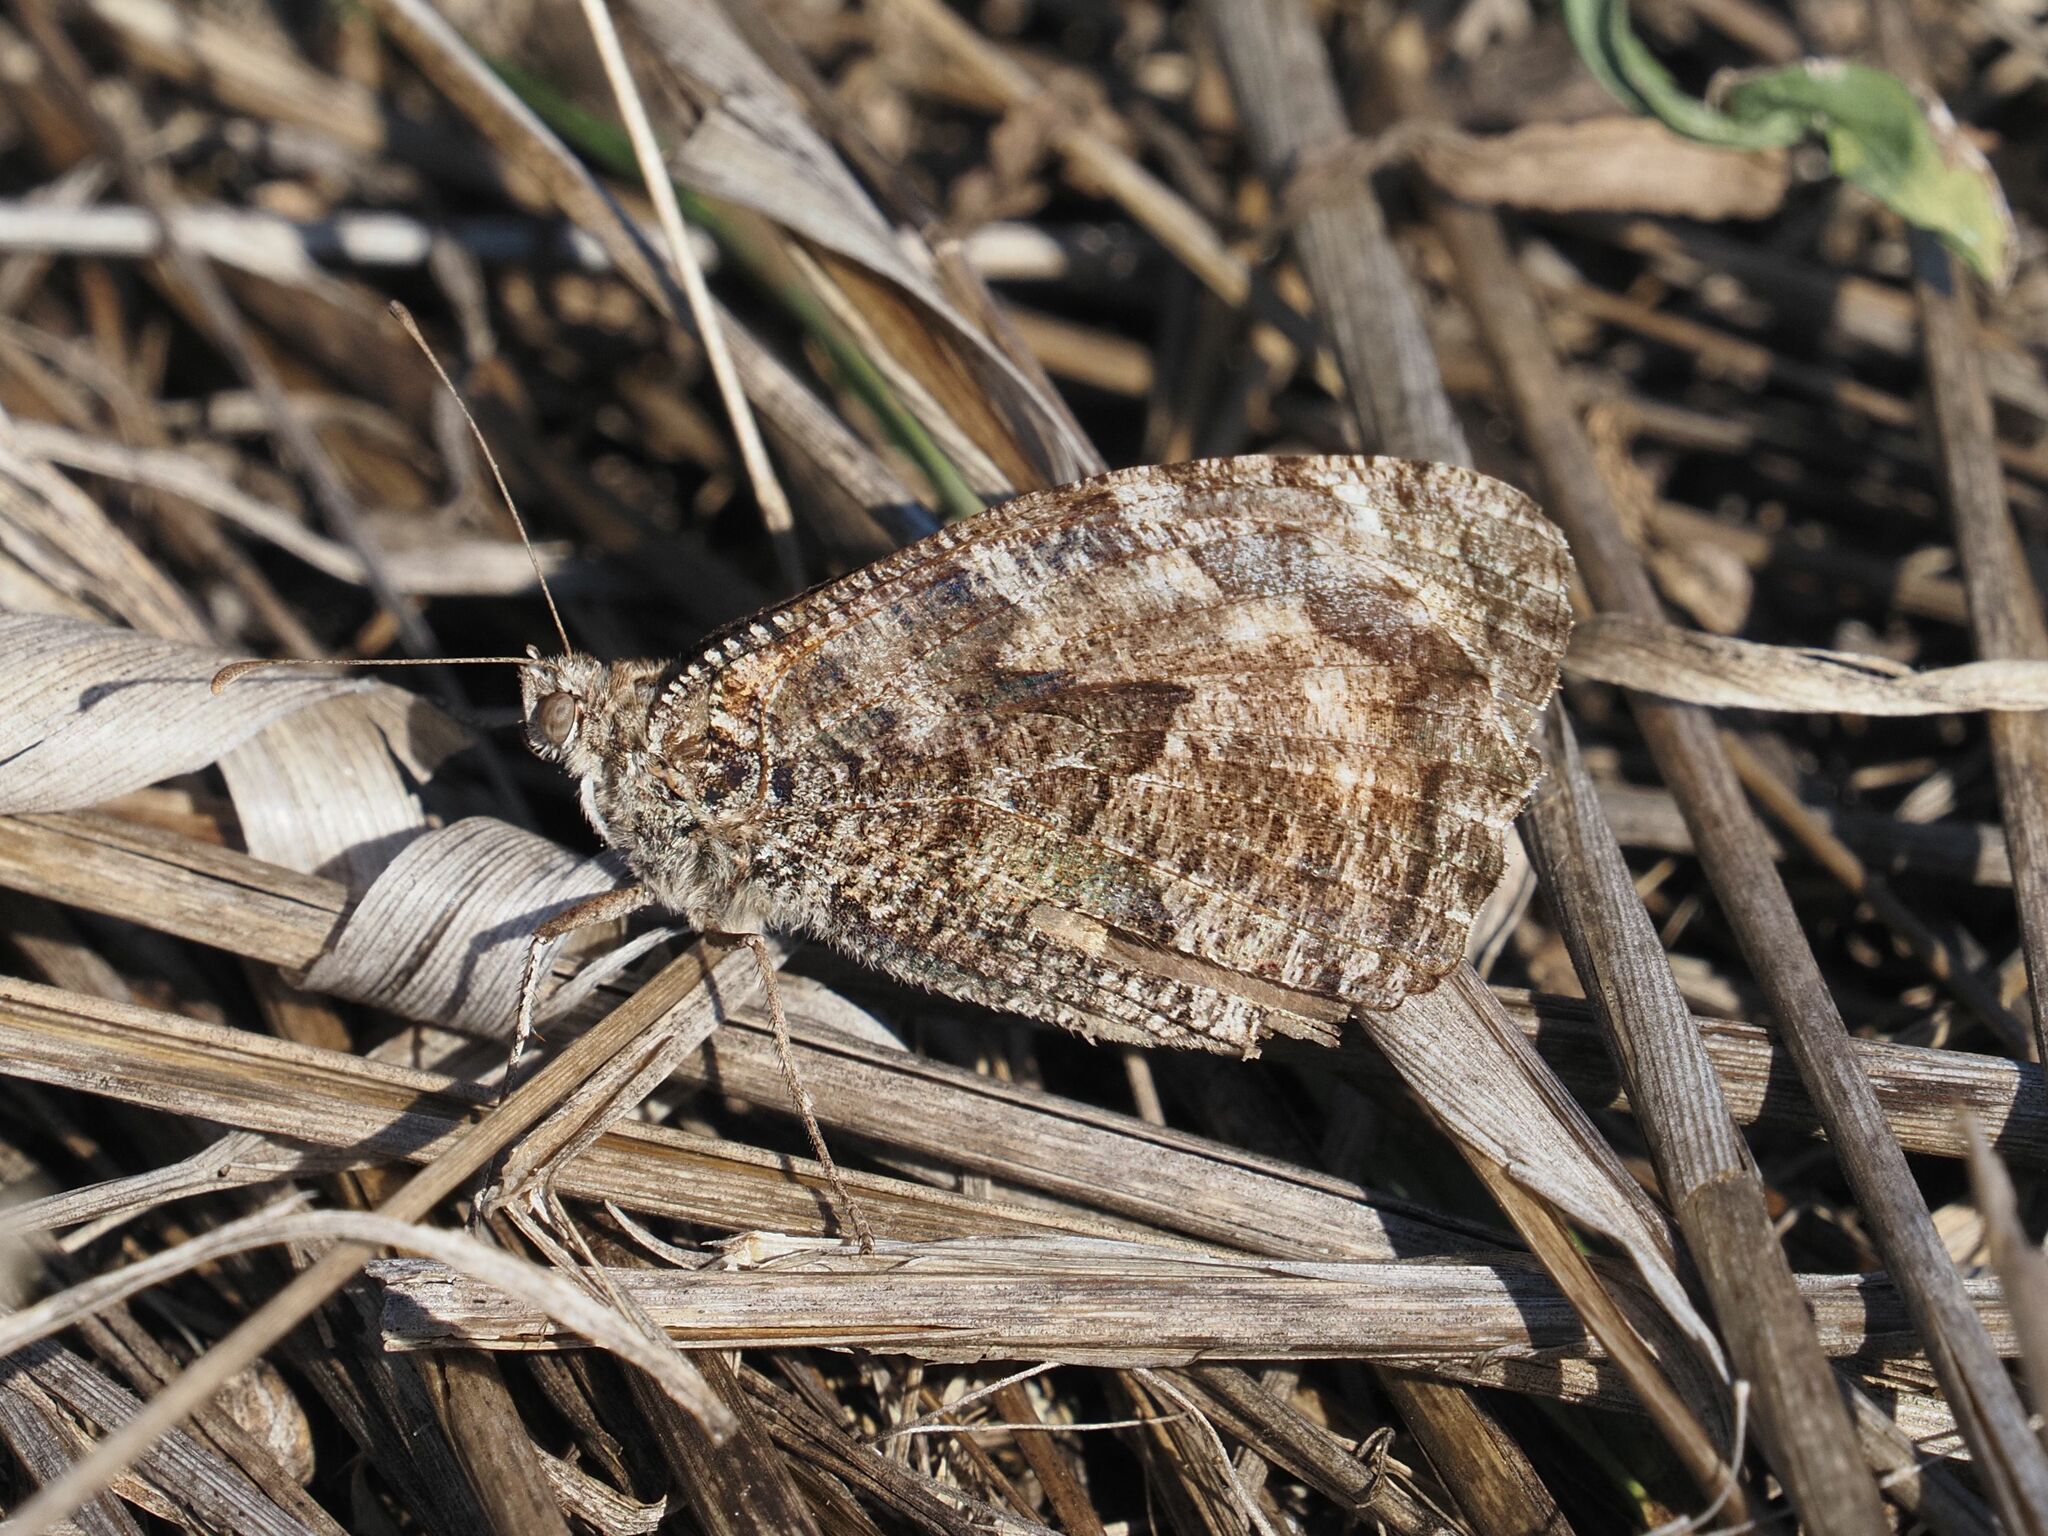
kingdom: Animalia
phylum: Arthropoda
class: Insecta
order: Lepidoptera
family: Nymphalidae
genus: Hipparchia
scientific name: Hipparchia semele
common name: Grayling
